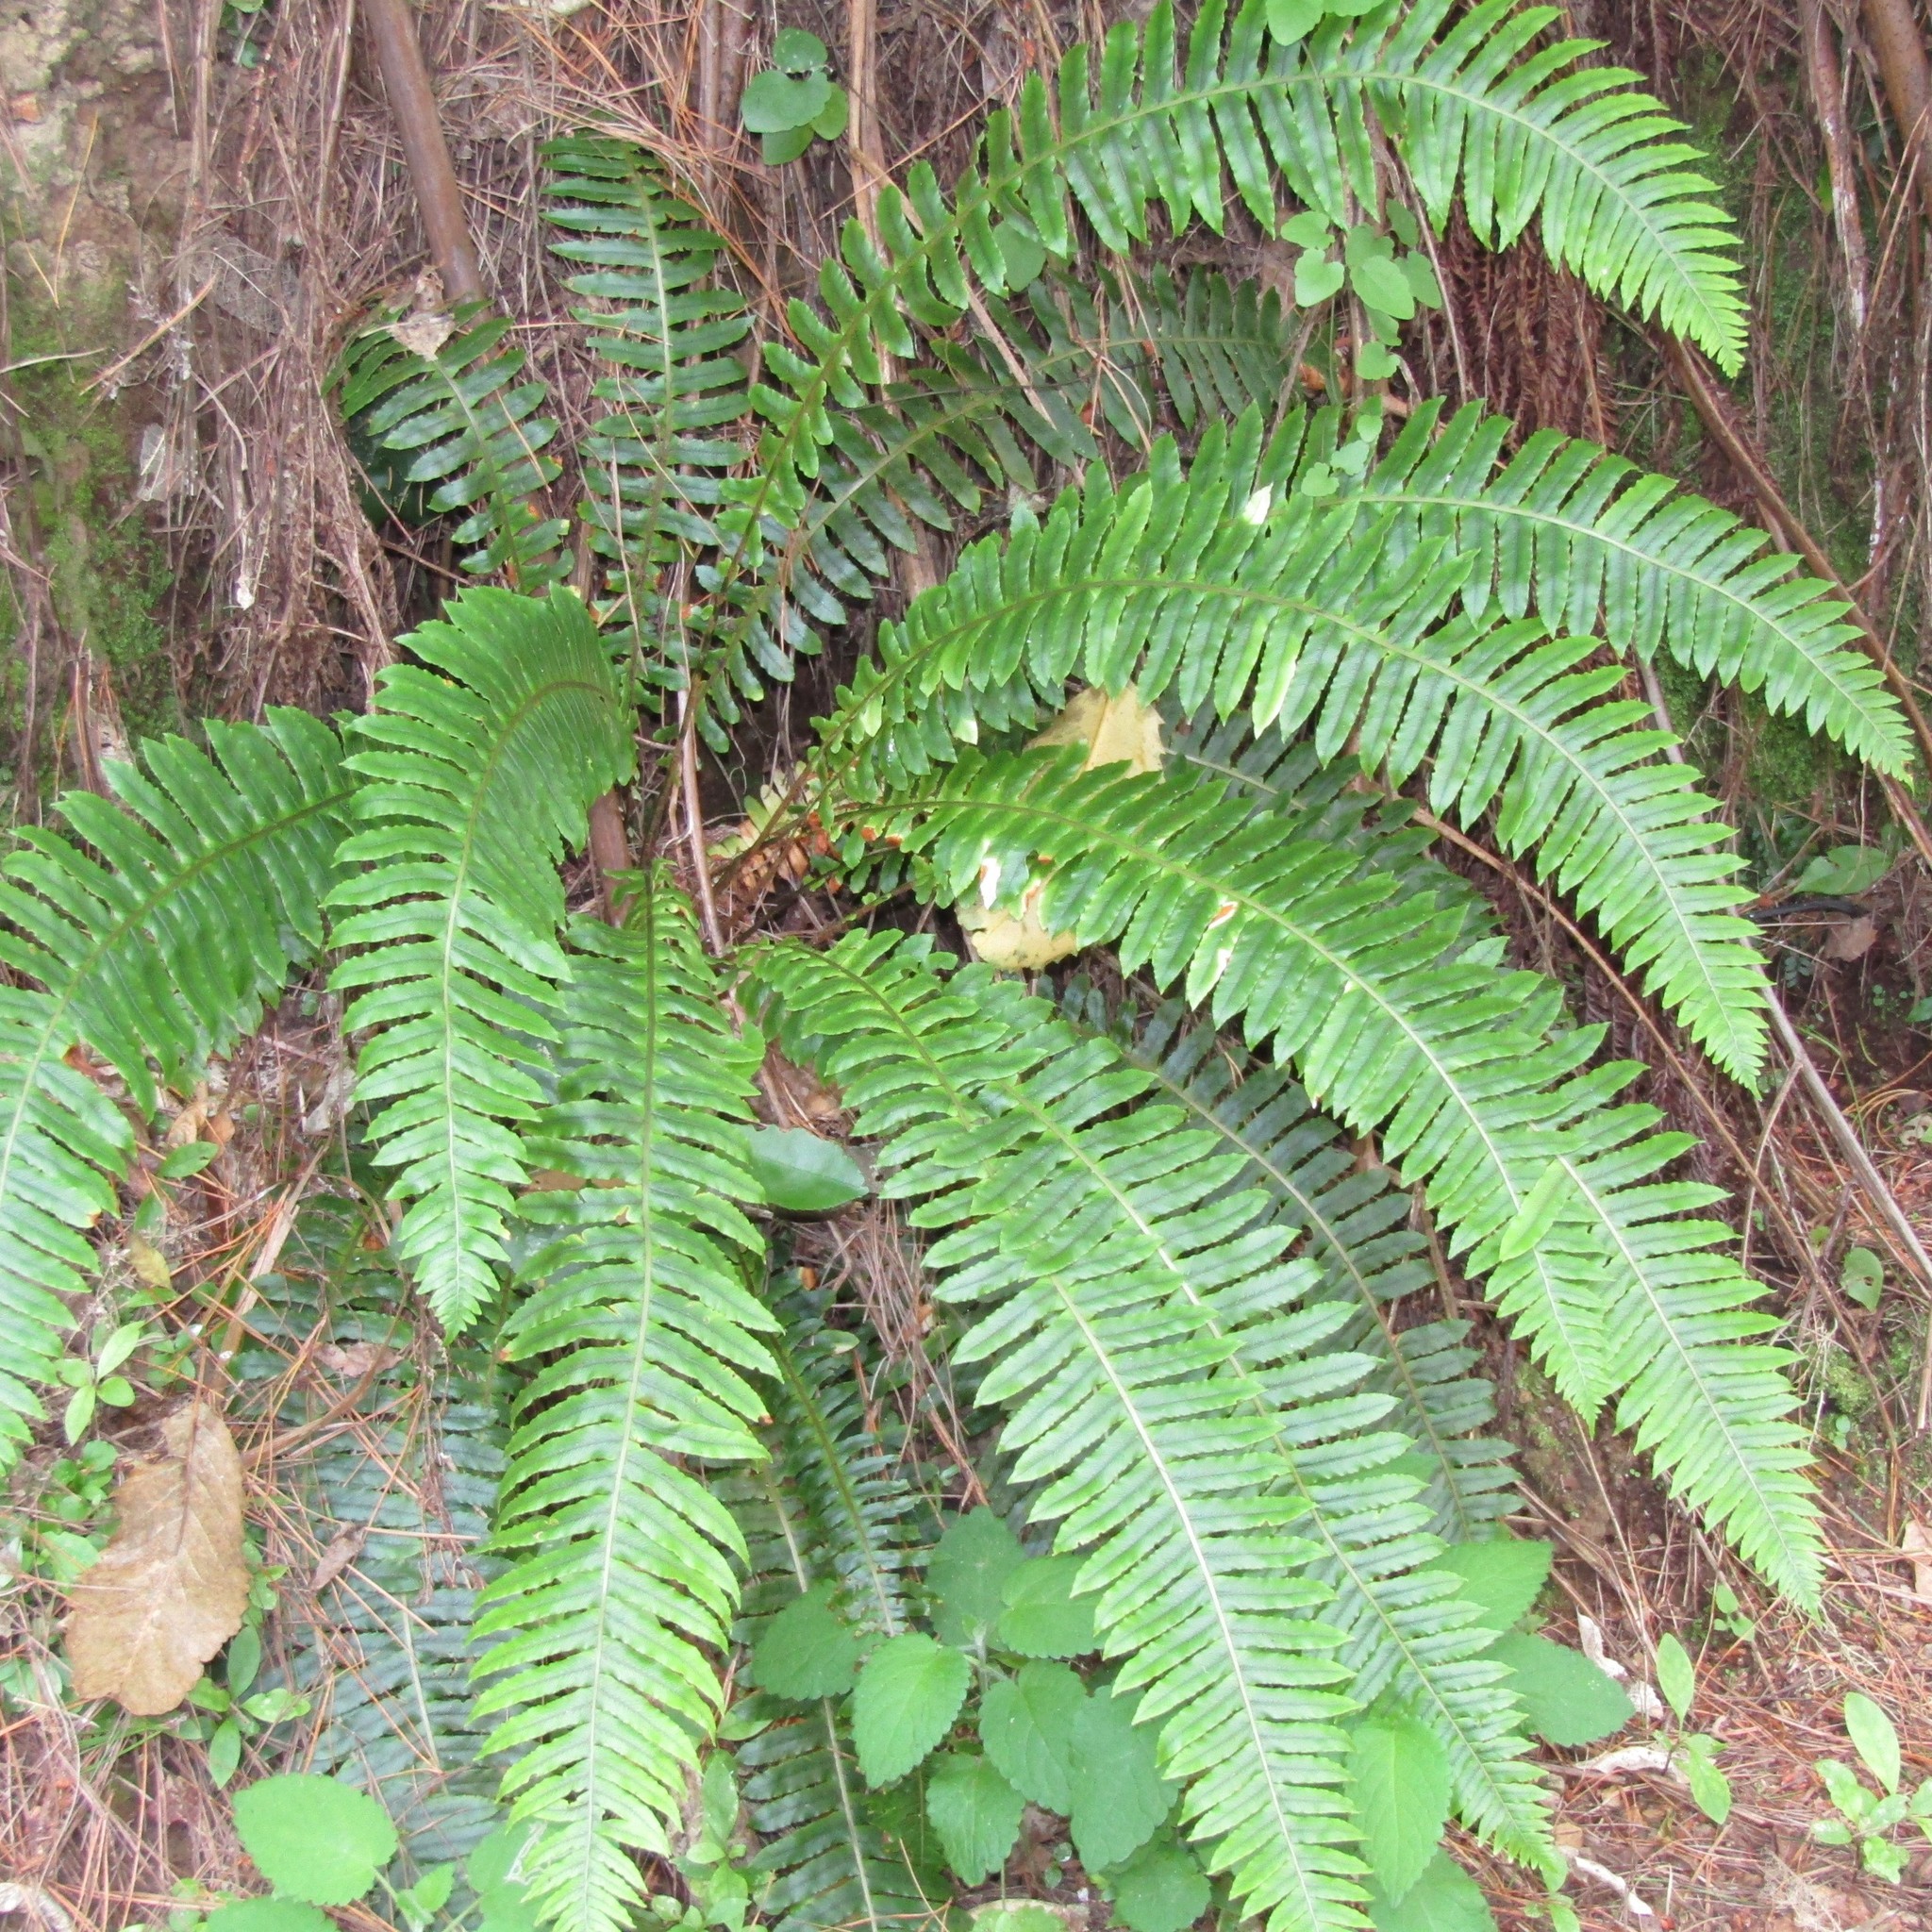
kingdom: Plantae
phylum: Tracheophyta
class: Polypodiopsida
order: Polypodiales
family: Blechnaceae
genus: Lomaria
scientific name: Lomaria discolor
